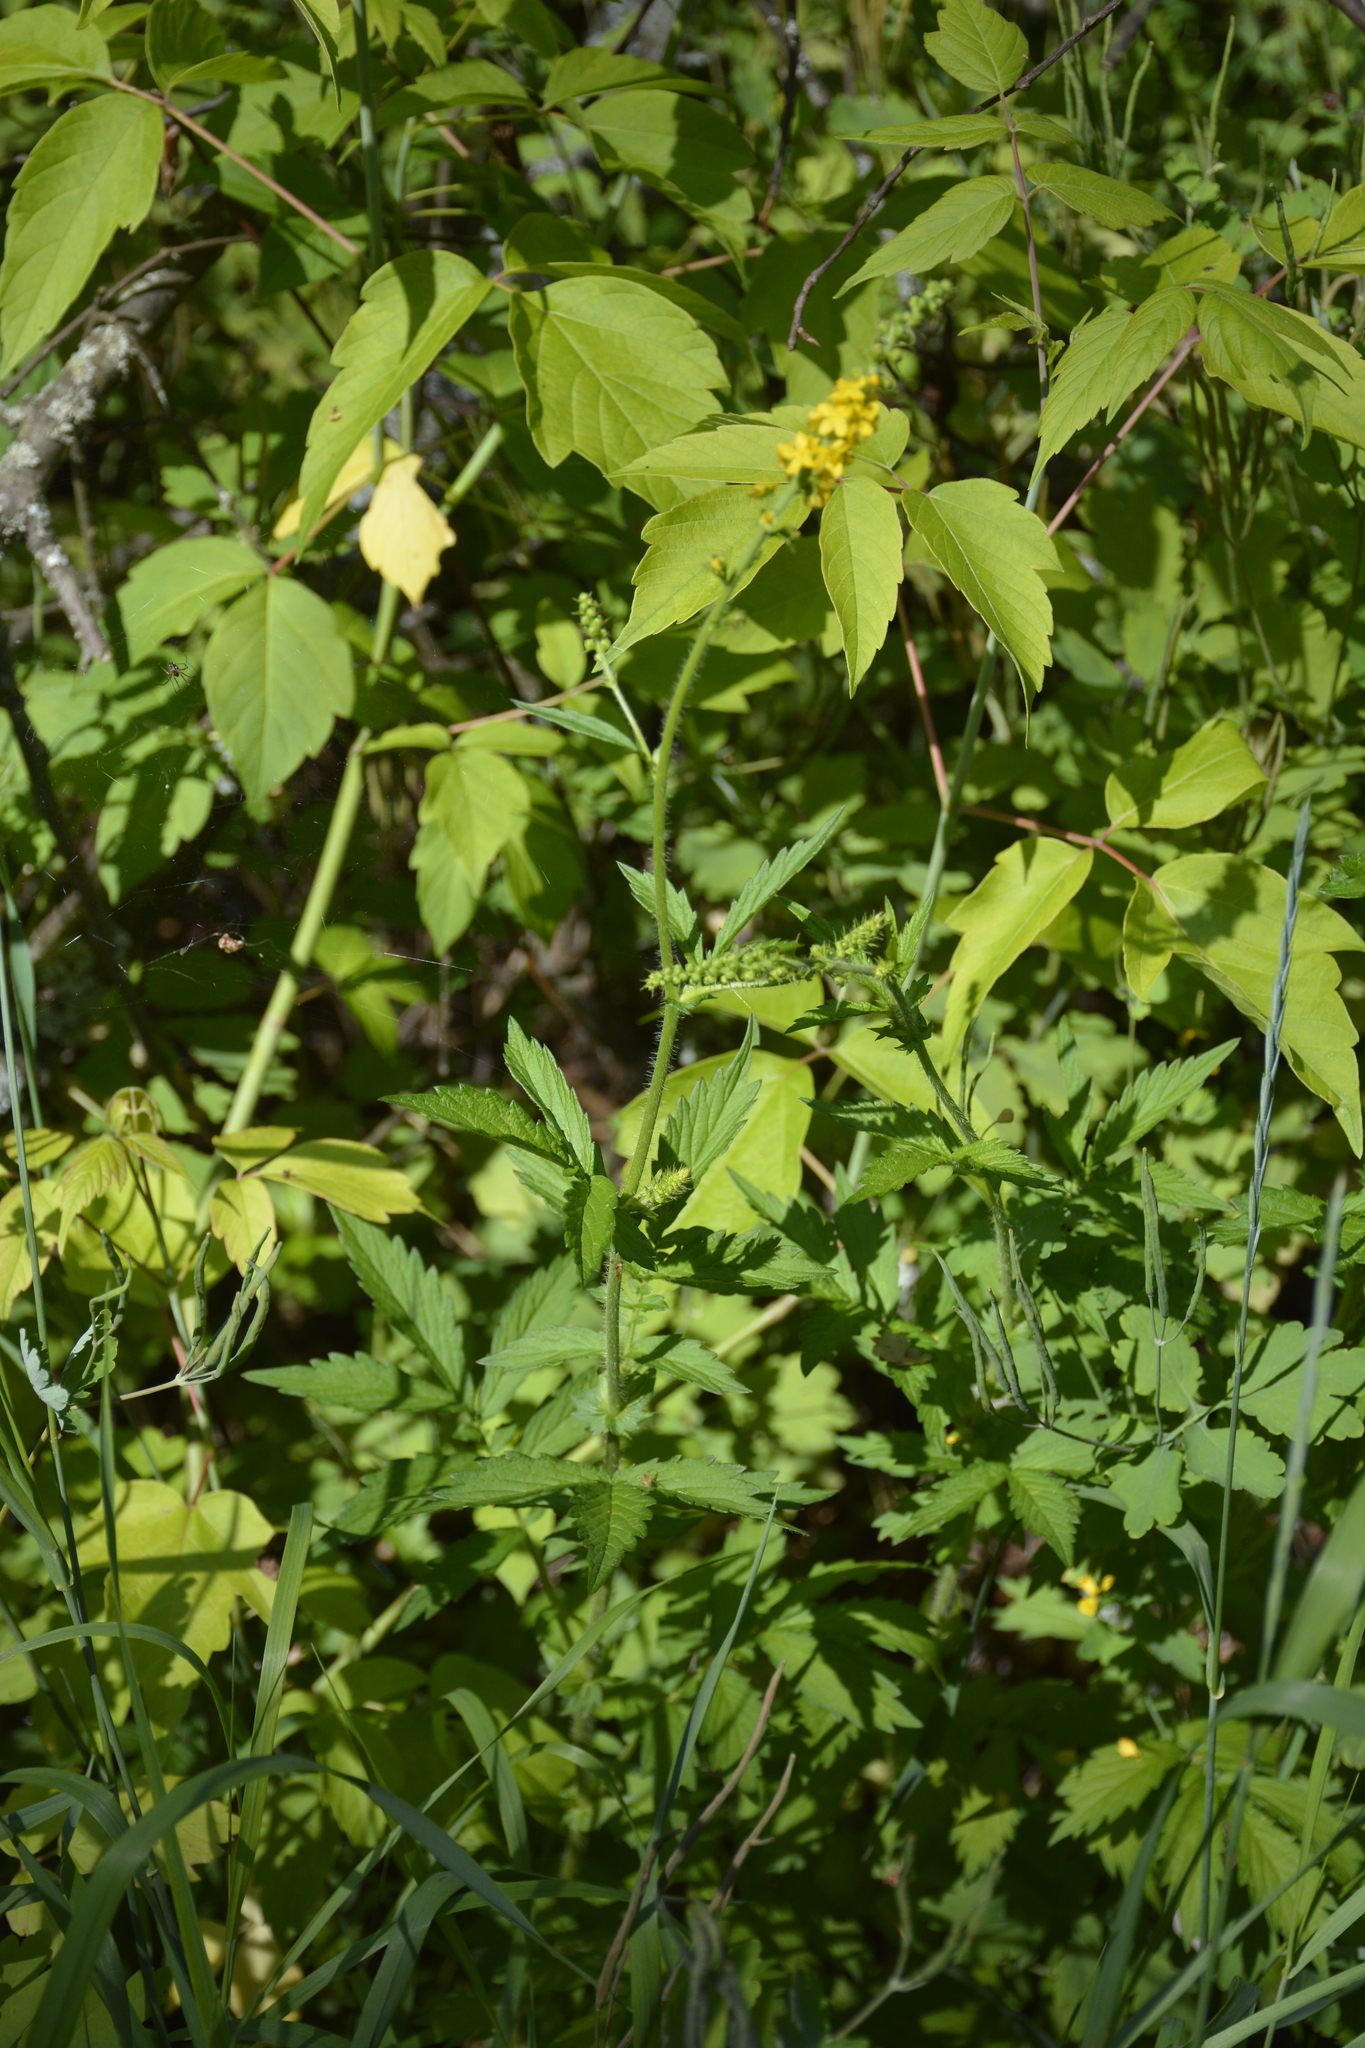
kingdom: Plantae
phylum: Tracheophyta
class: Magnoliopsida
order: Rosales
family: Rosaceae
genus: Agrimonia
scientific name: Agrimonia pilosa
